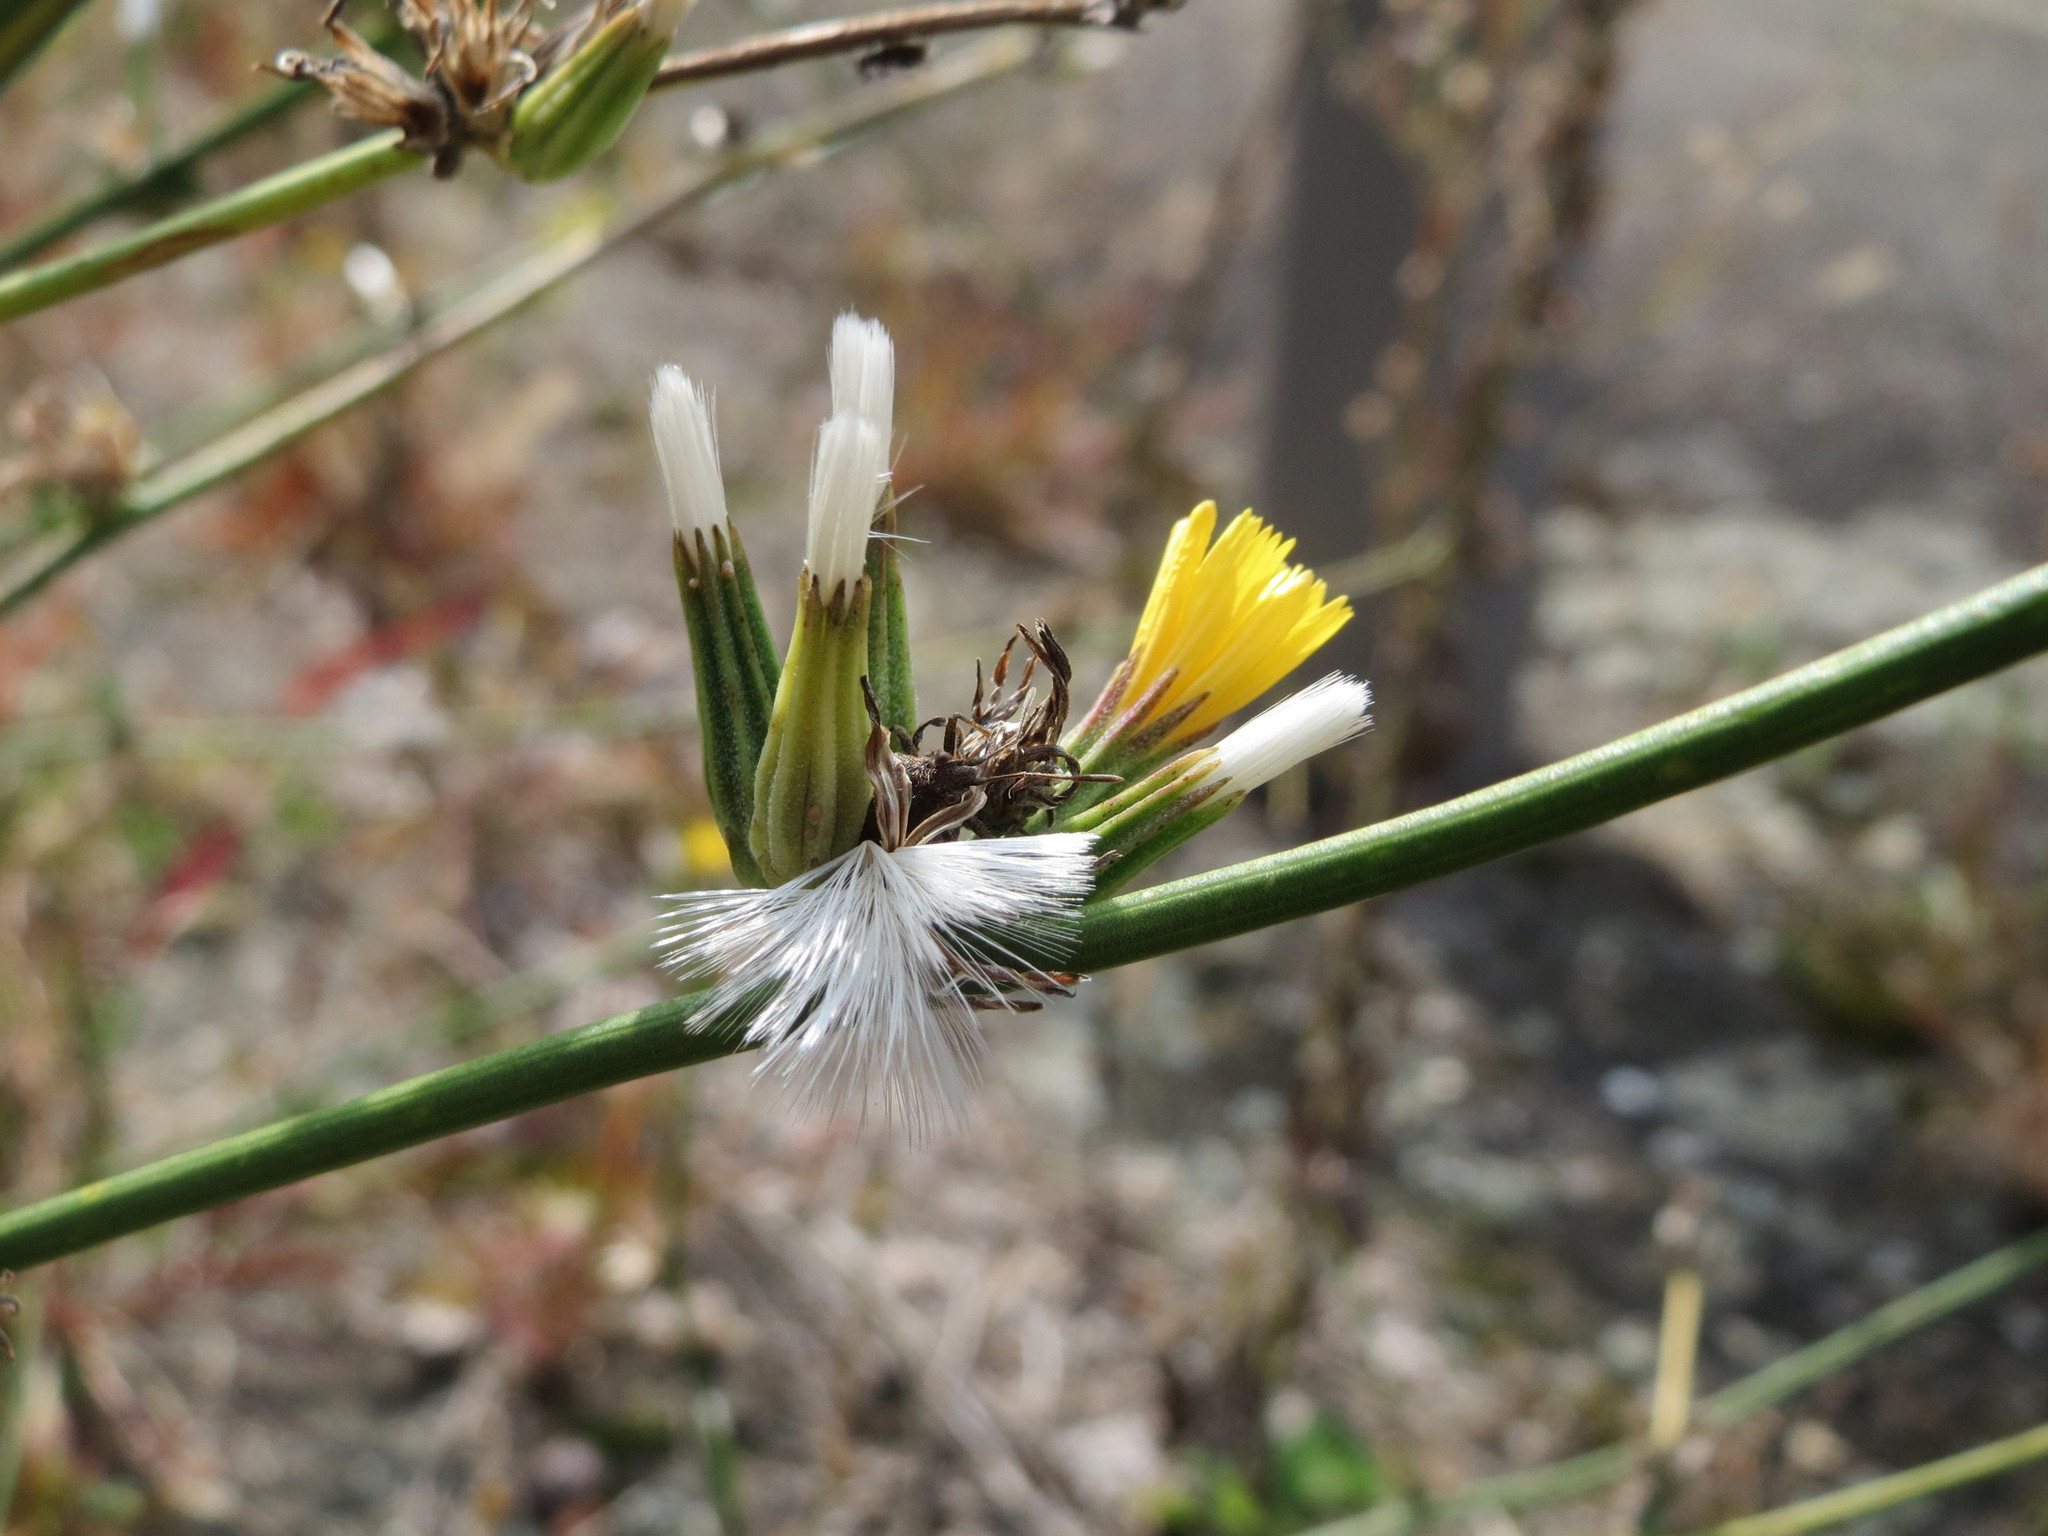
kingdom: Plantae
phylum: Tracheophyta
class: Magnoliopsida
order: Asterales
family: Asteraceae
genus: Chondrilla
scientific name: Chondrilla juncea
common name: Skeleton weed
